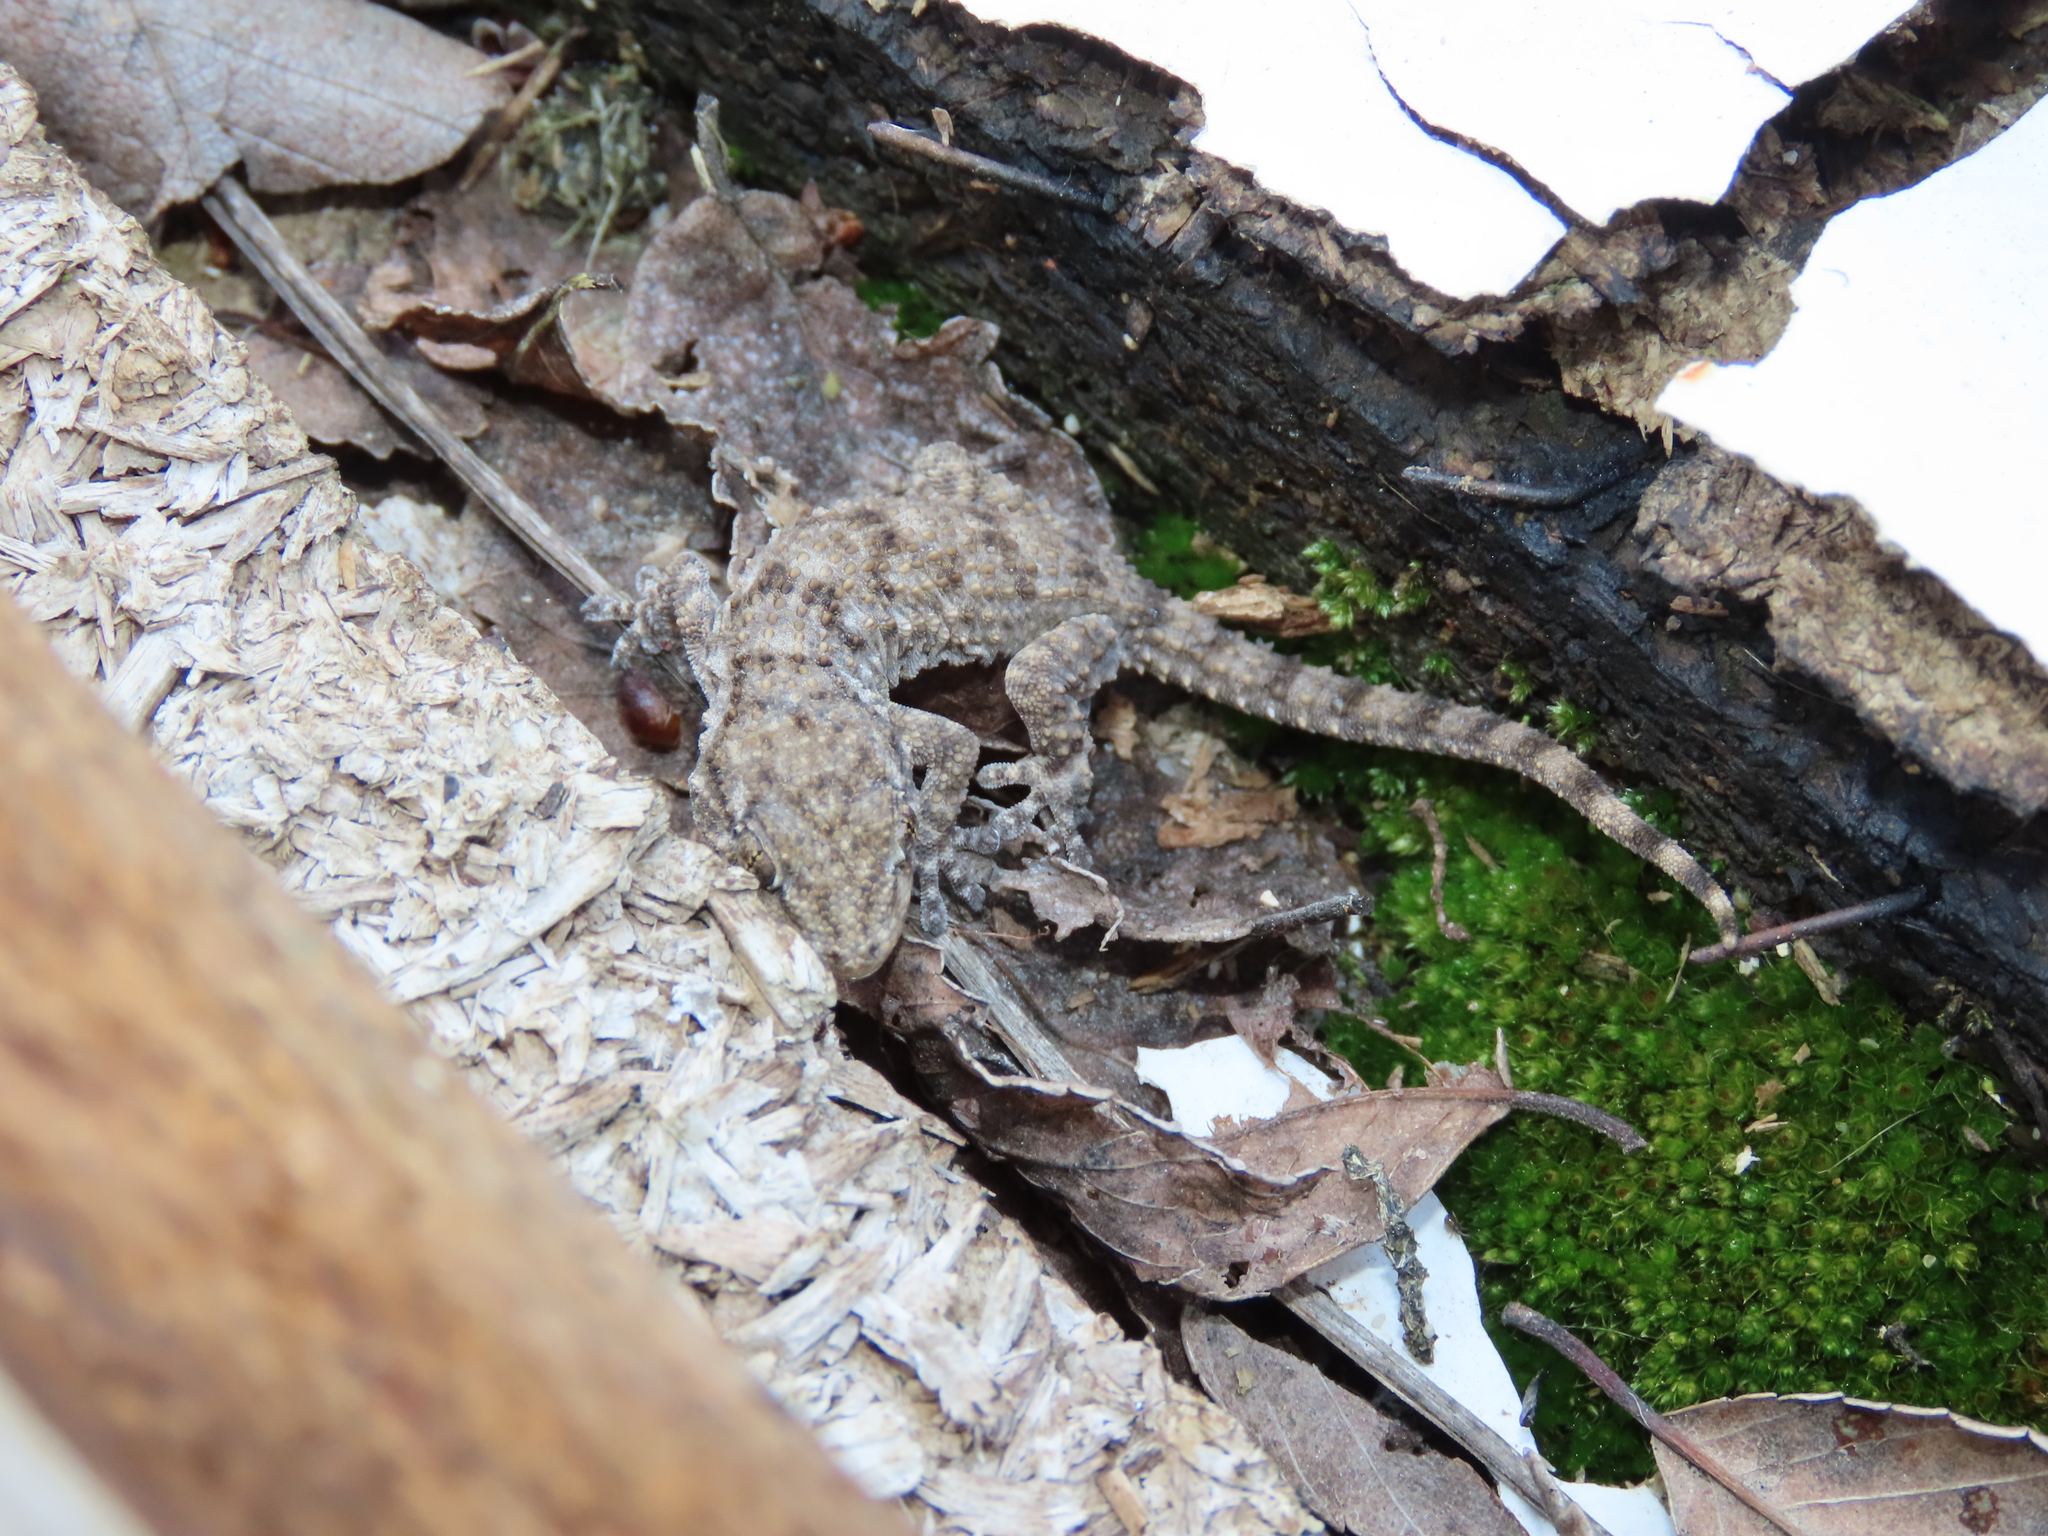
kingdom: Animalia
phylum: Chordata
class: Squamata
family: Phyllodactylidae
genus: Tarentola
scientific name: Tarentola mauritanica
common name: Moorish gecko
